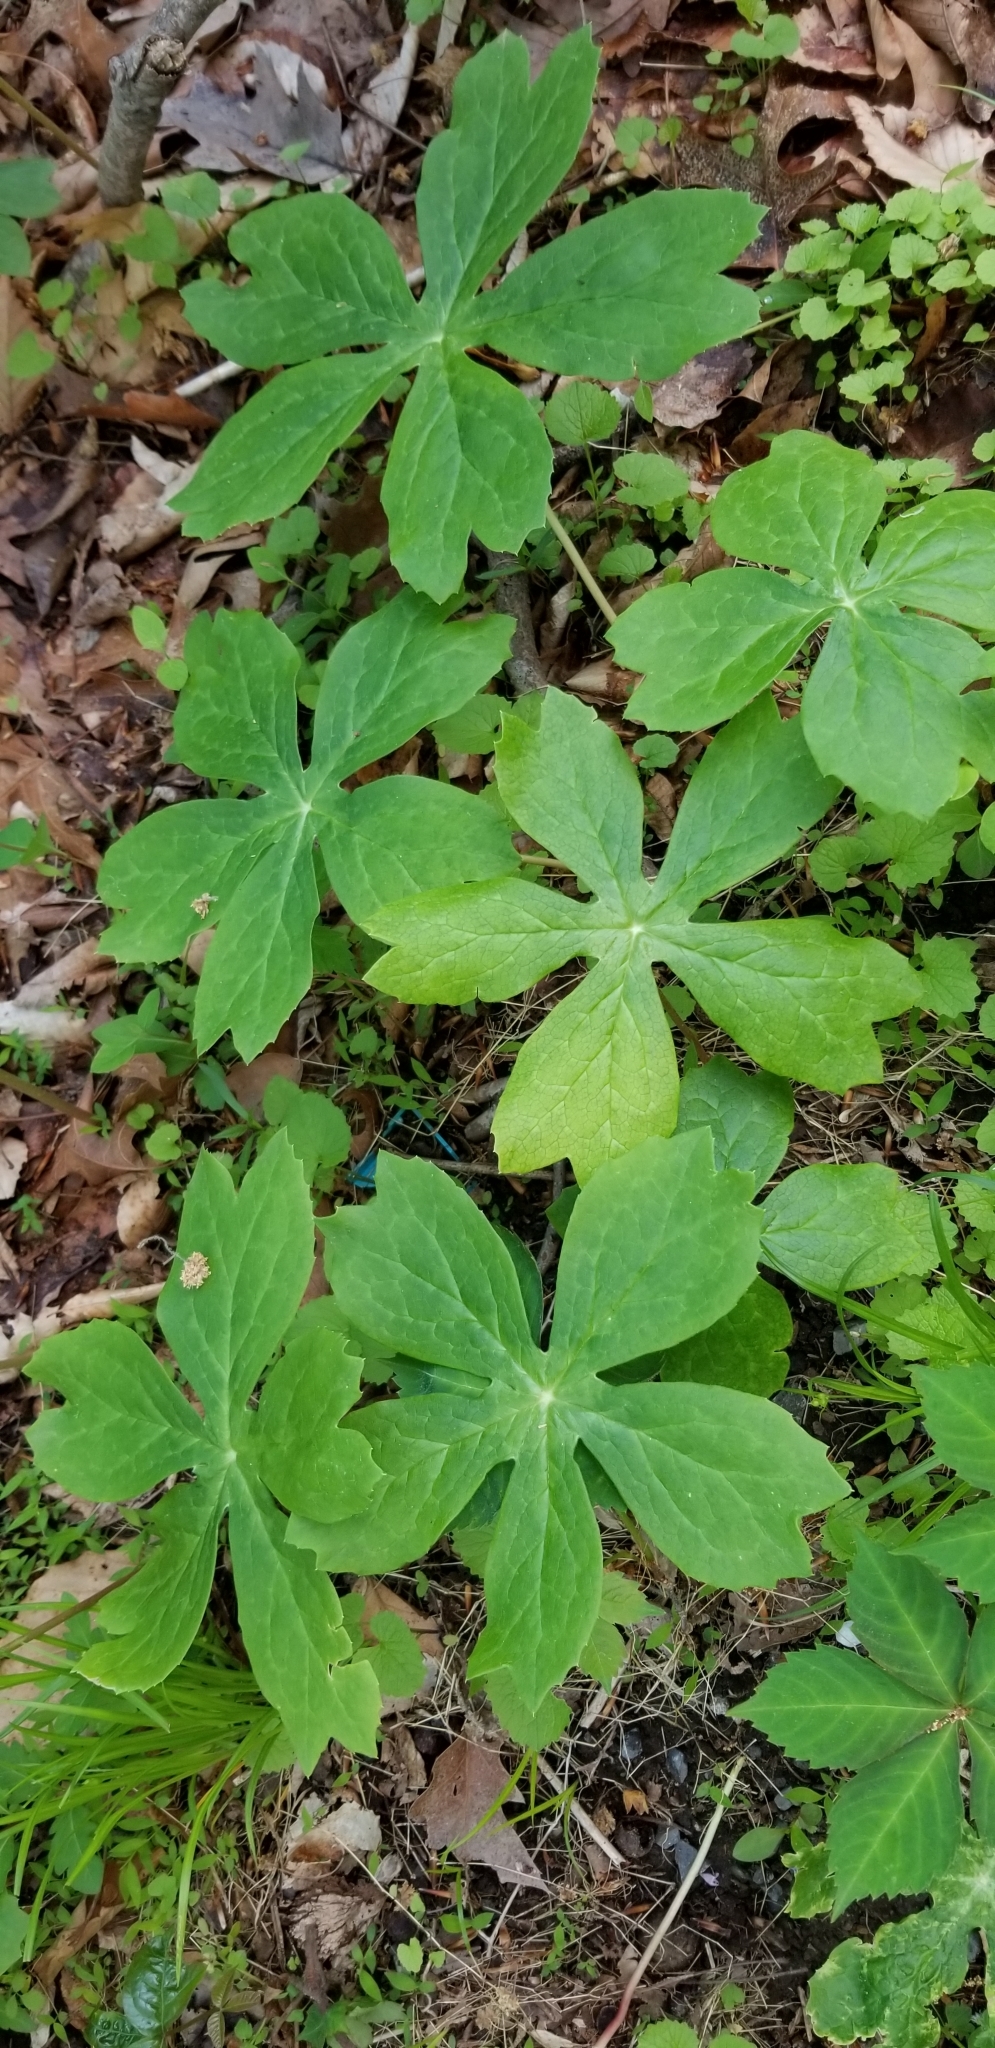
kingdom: Plantae
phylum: Tracheophyta
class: Magnoliopsida
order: Ranunculales
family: Berberidaceae
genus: Podophyllum
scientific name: Podophyllum peltatum
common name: Wild mandrake
